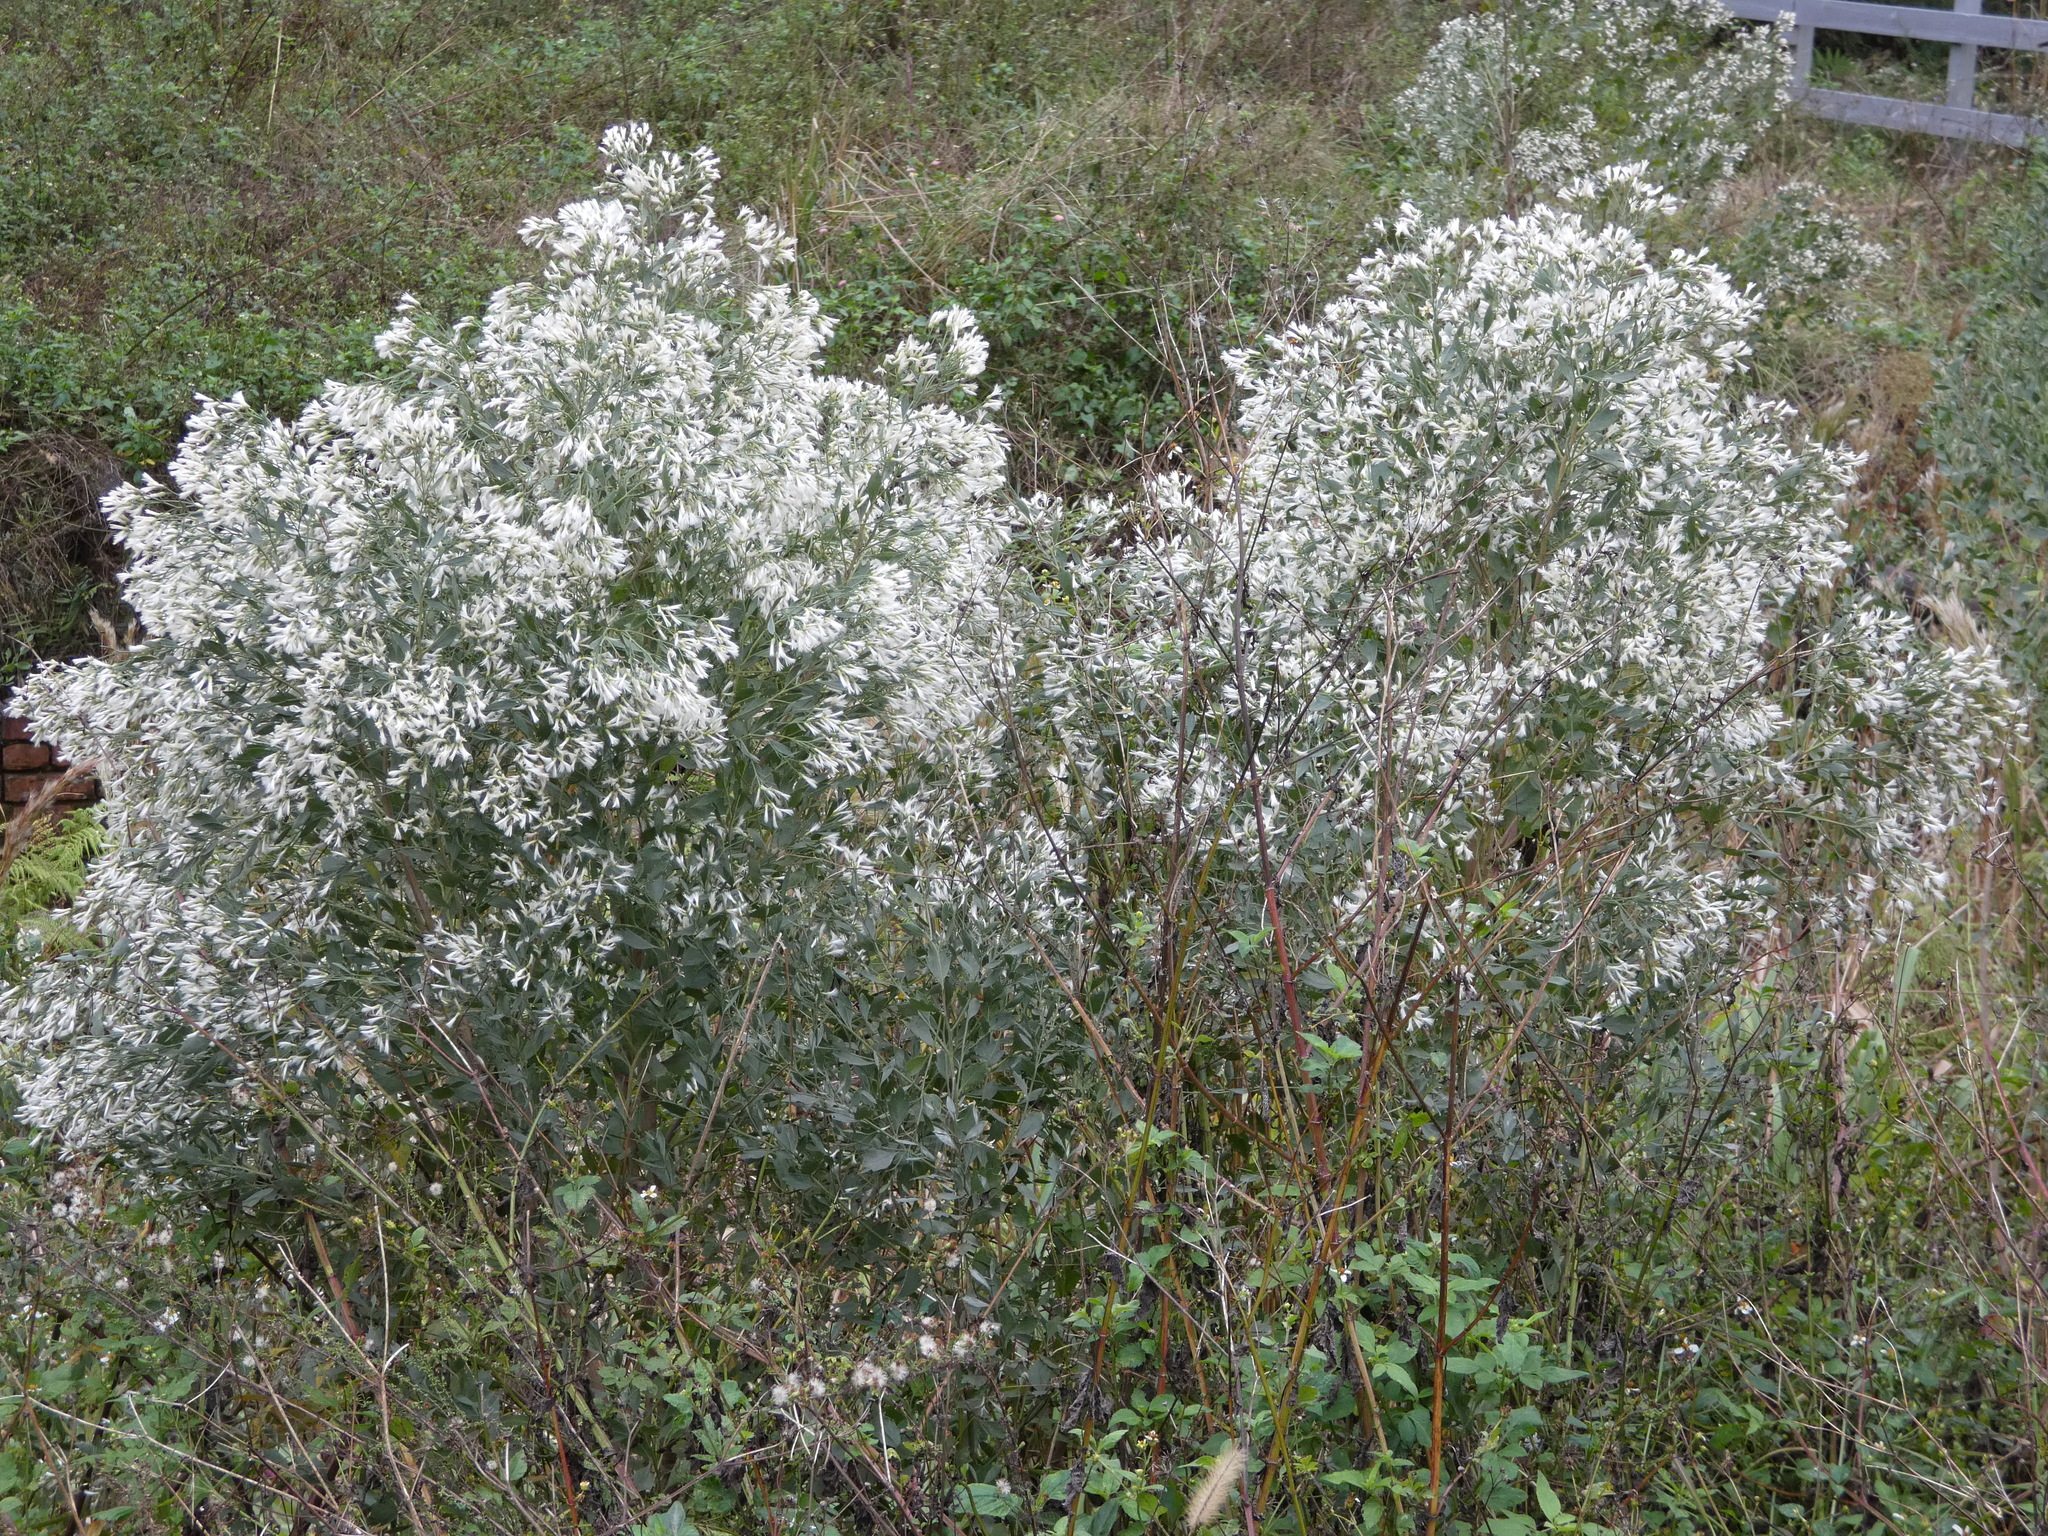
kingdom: Plantae
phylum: Tracheophyta
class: Magnoliopsida
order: Asterales
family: Asteraceae
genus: Baccharis
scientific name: Baccharis halimifolia
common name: Eastern baccharis
